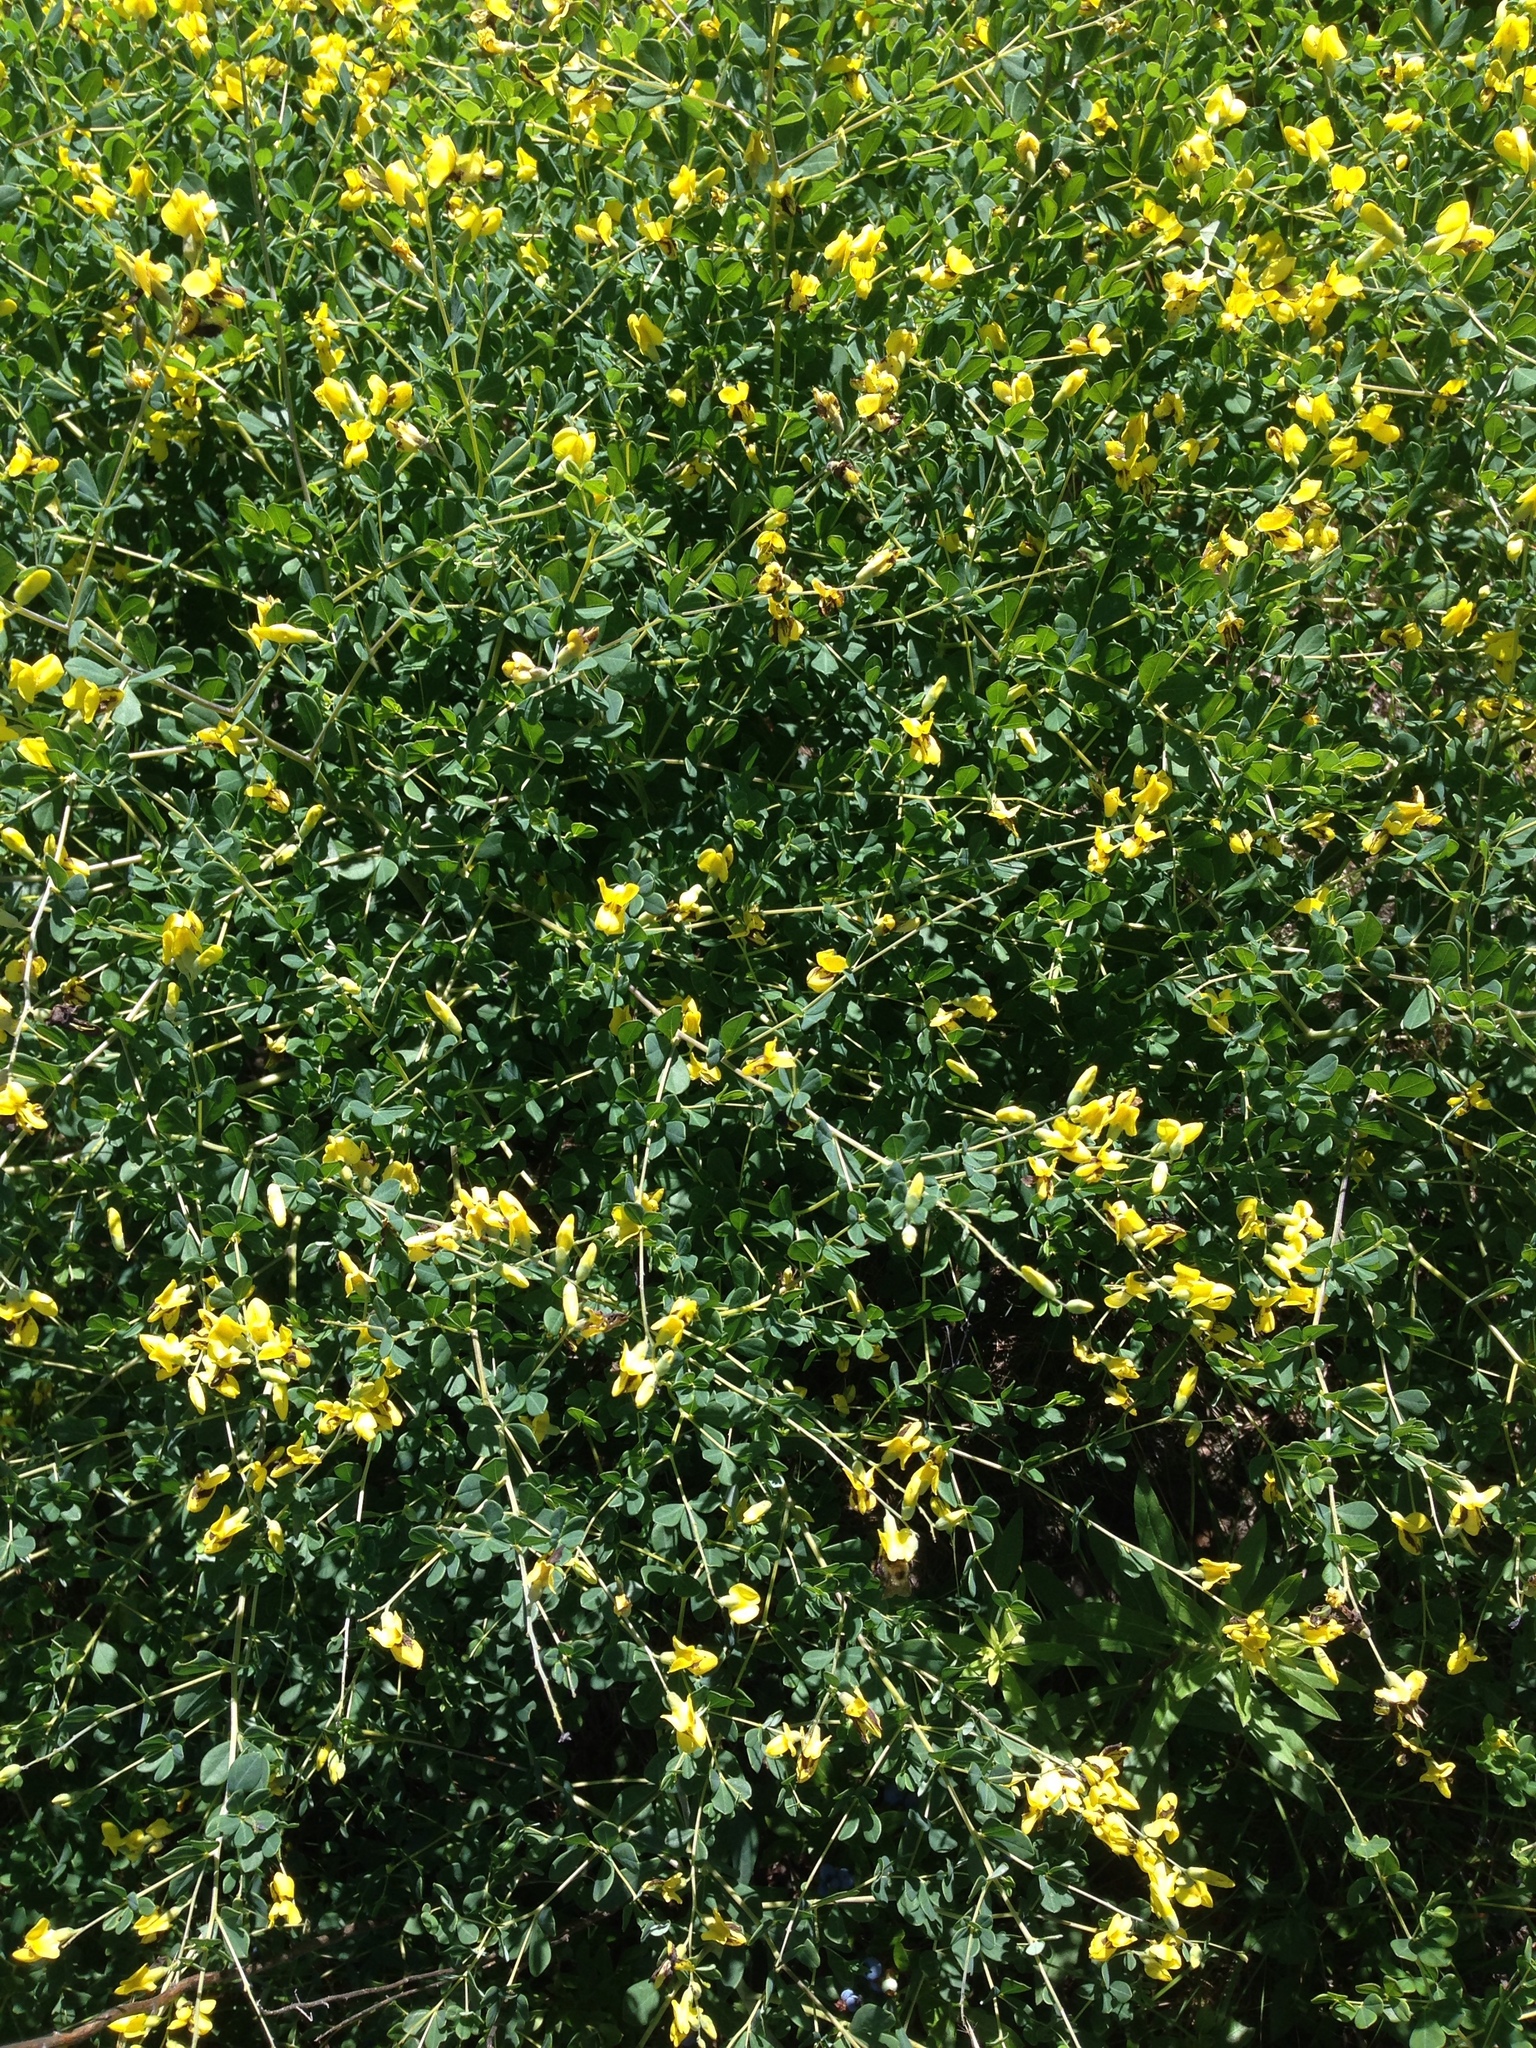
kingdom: Plantae
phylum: Tracheophyta
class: Magnoliopsida
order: Fabales
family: Fabaceae
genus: Baptisia
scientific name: Baptisia tinctoria
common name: Wild indigo
